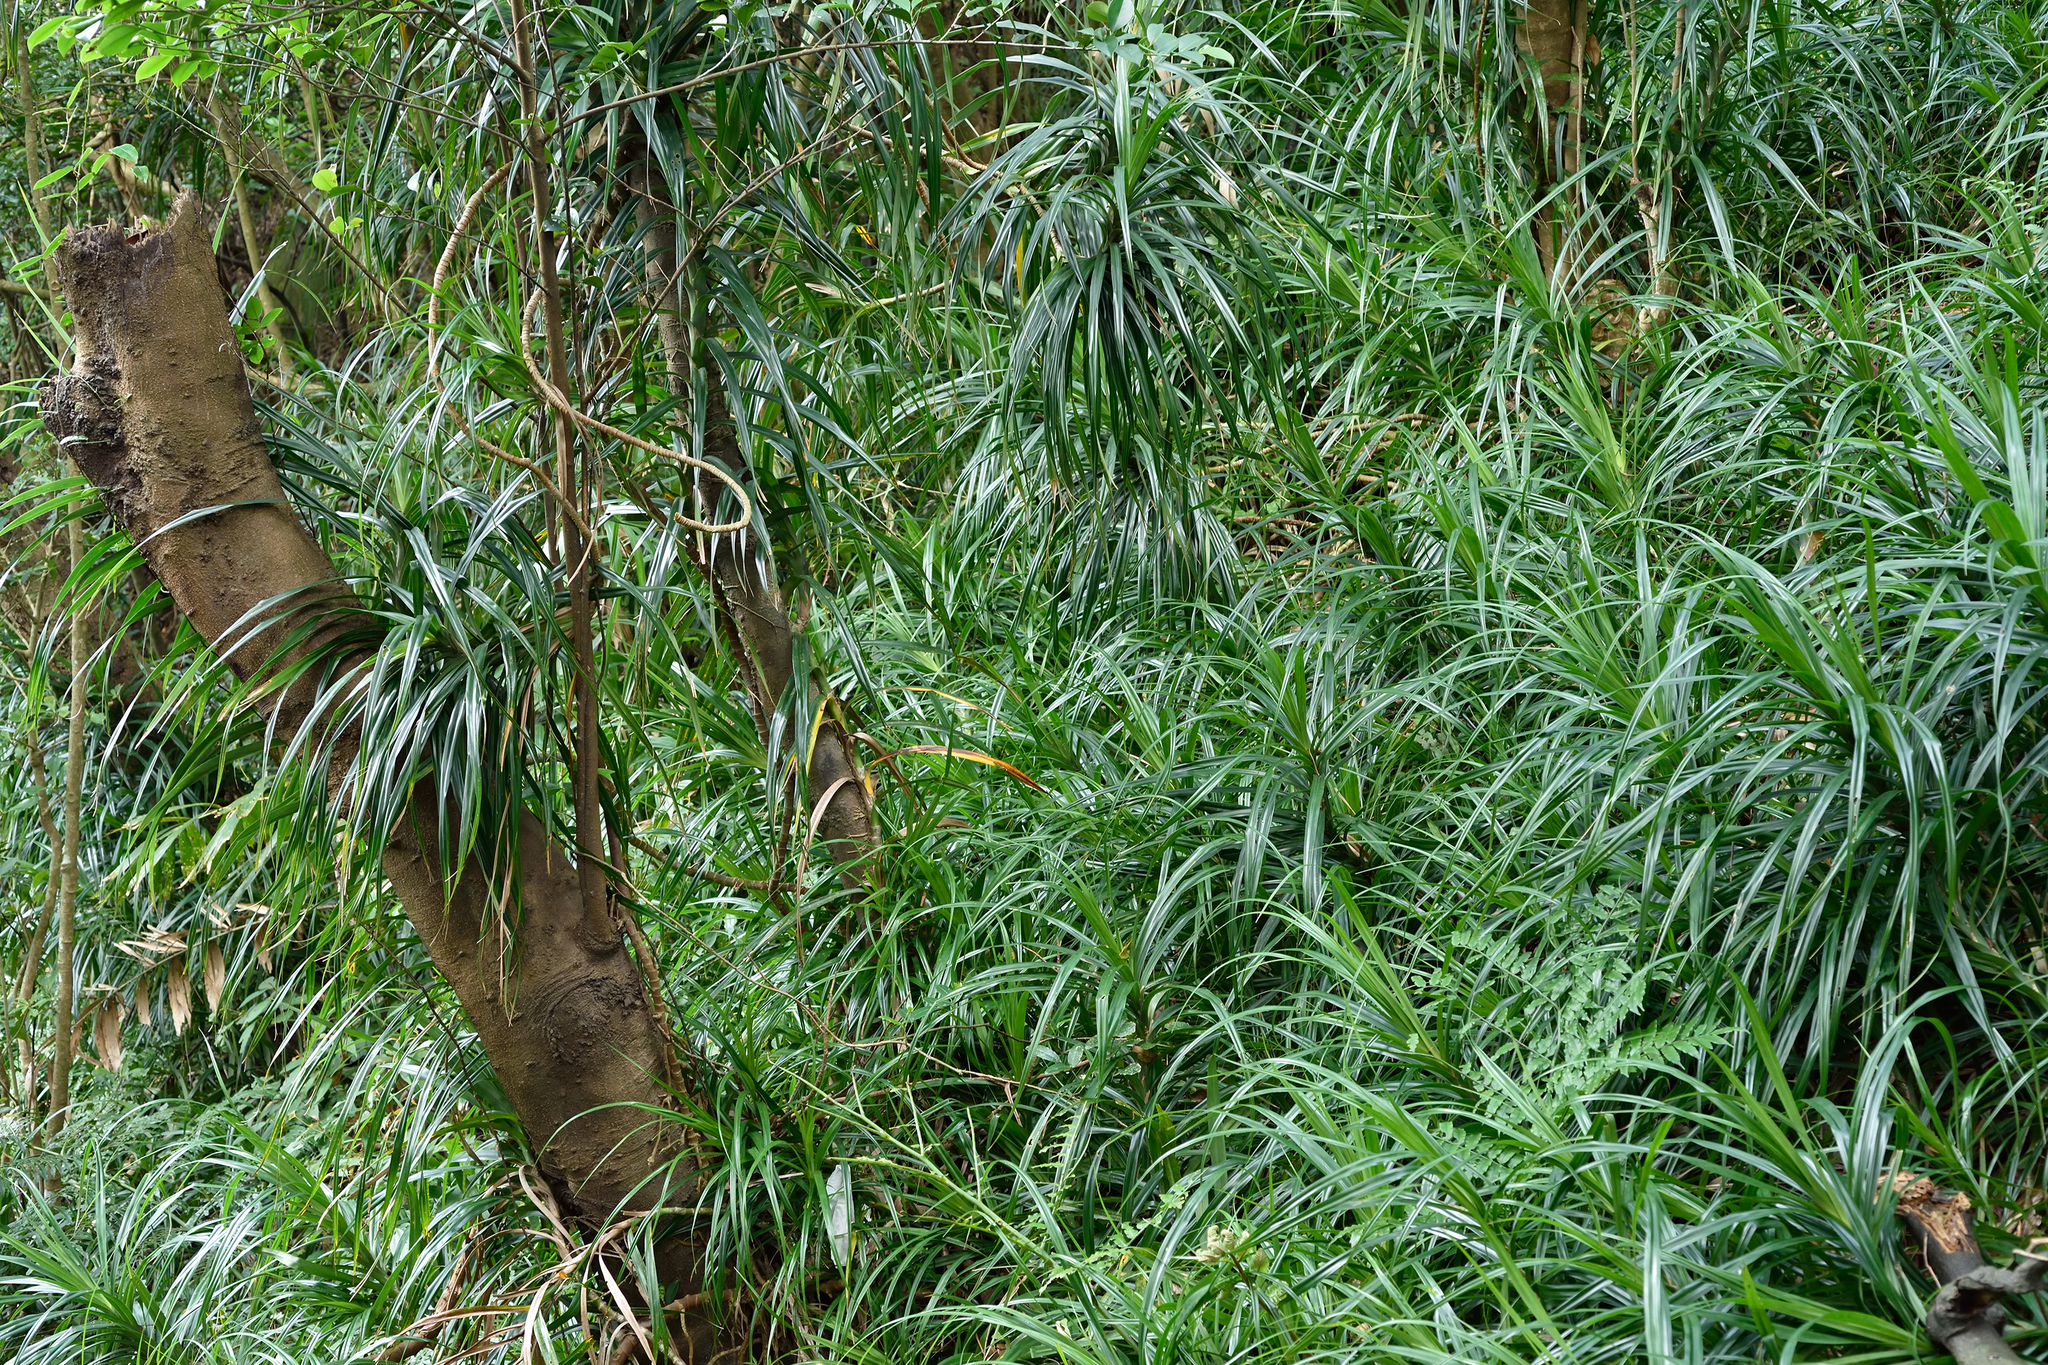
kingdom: Plantae
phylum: Tracheophyta
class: Liliopsida
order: Pandanales
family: Pandanaceae
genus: Freycinetia
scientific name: Freycinetia formosana
